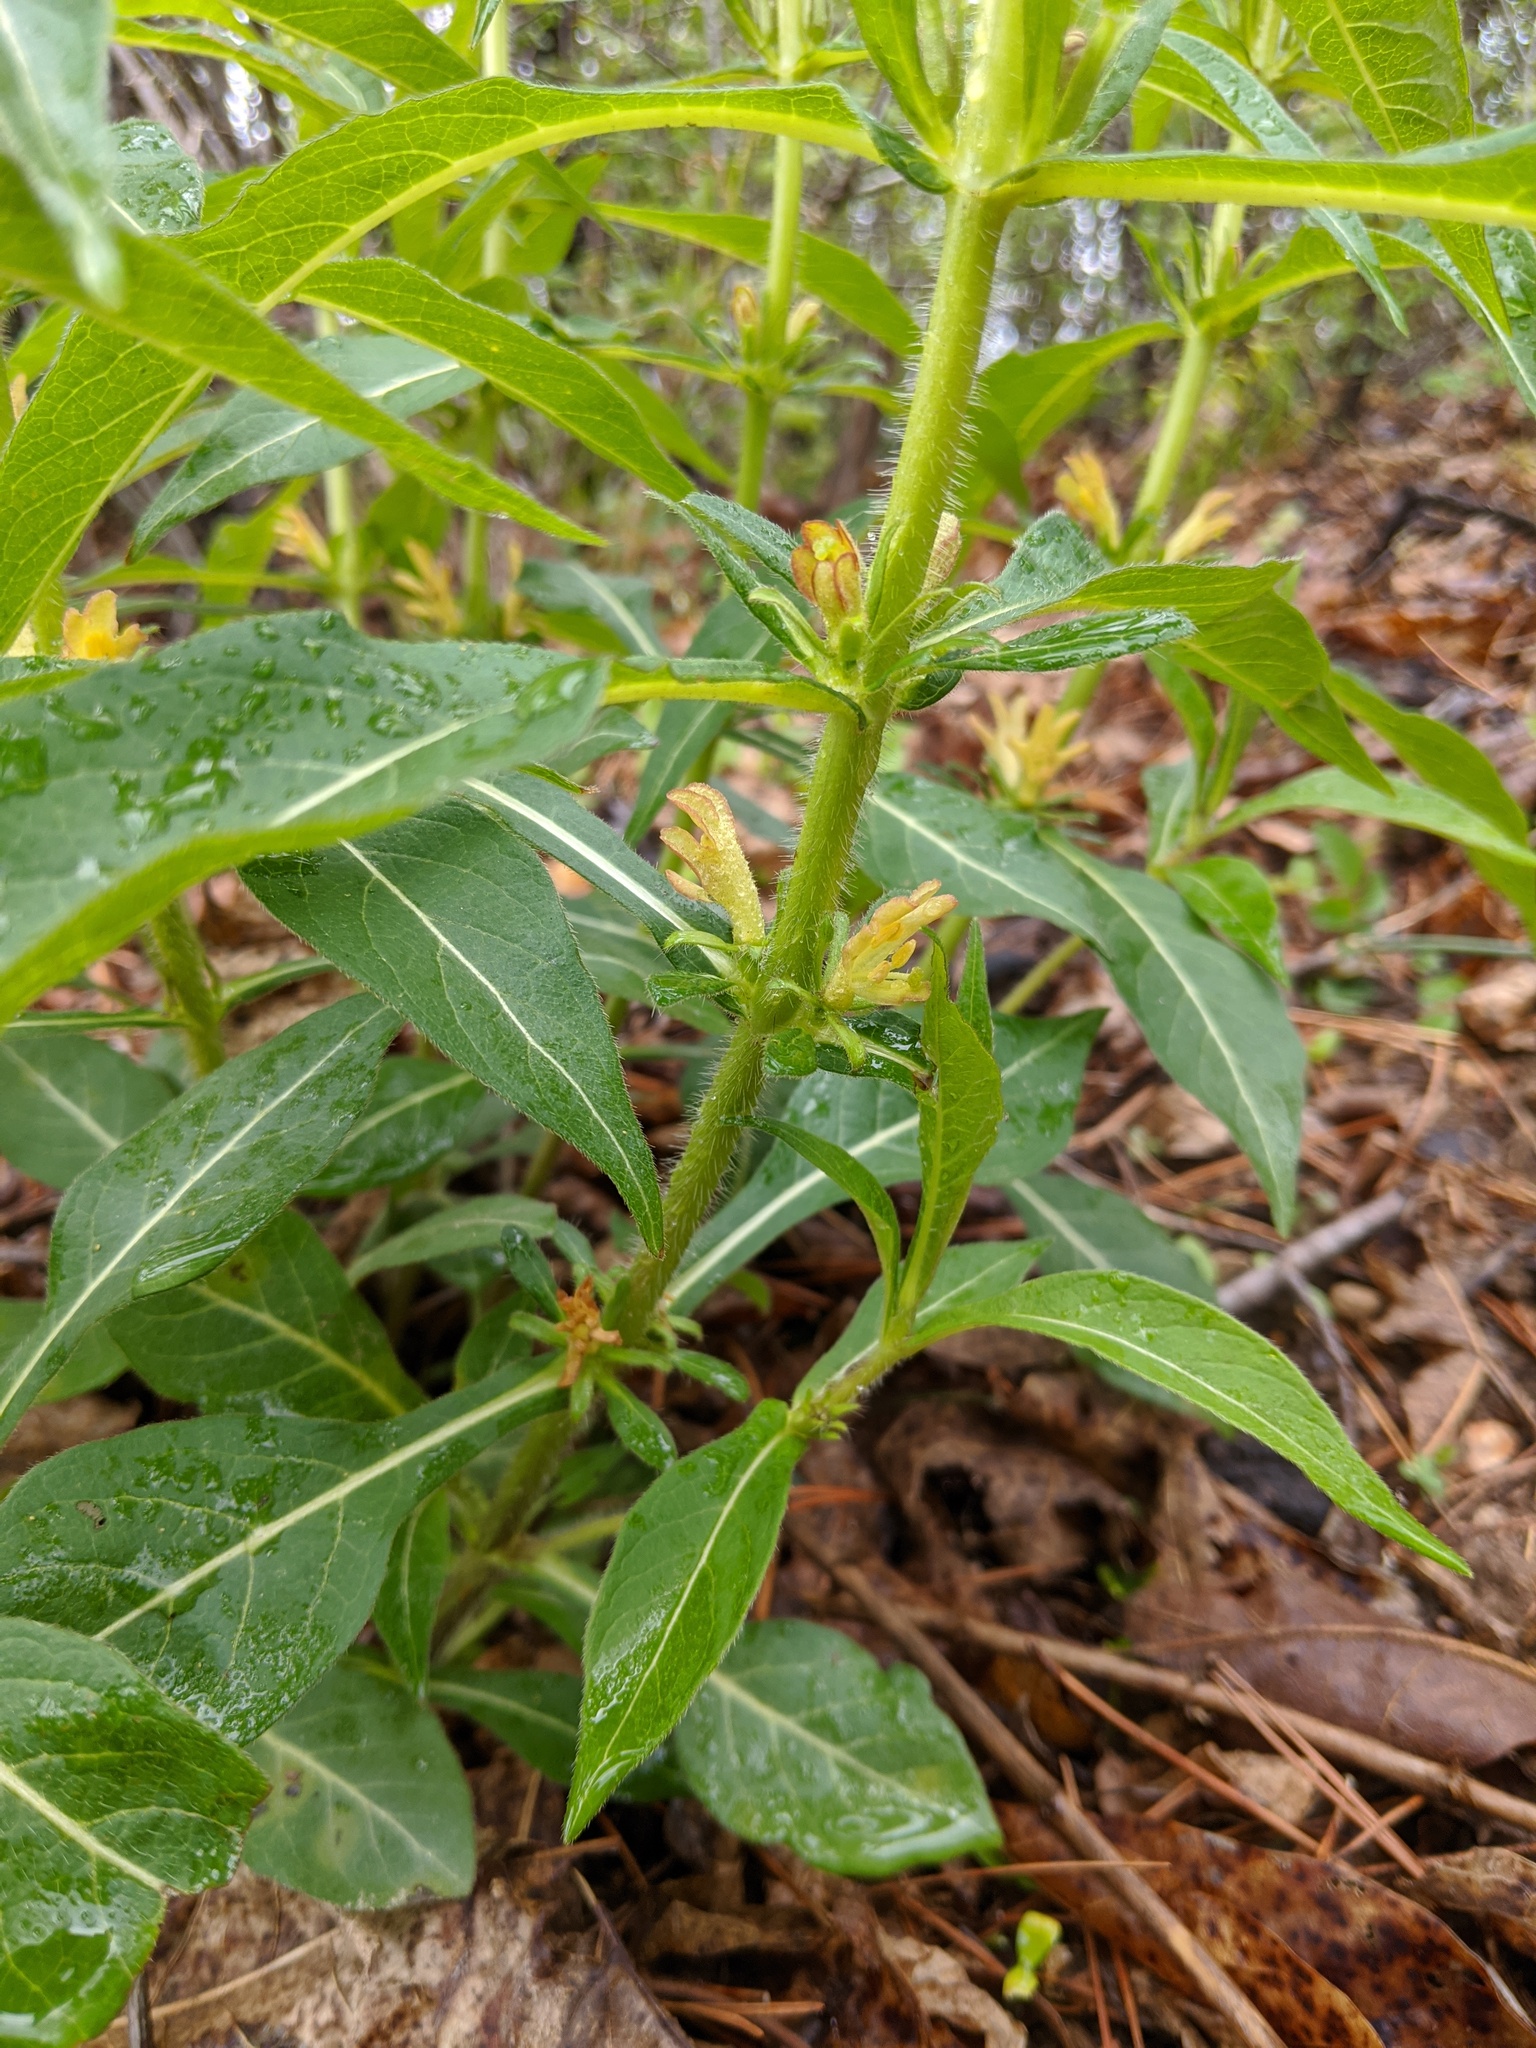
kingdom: Plantae
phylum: Tracheophyta
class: Magnoliopsida
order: Dipsacales
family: Caprifoliaceae
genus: Triosteum
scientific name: Triosteum angustifolium
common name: Narrow-leaved horse-gentian
